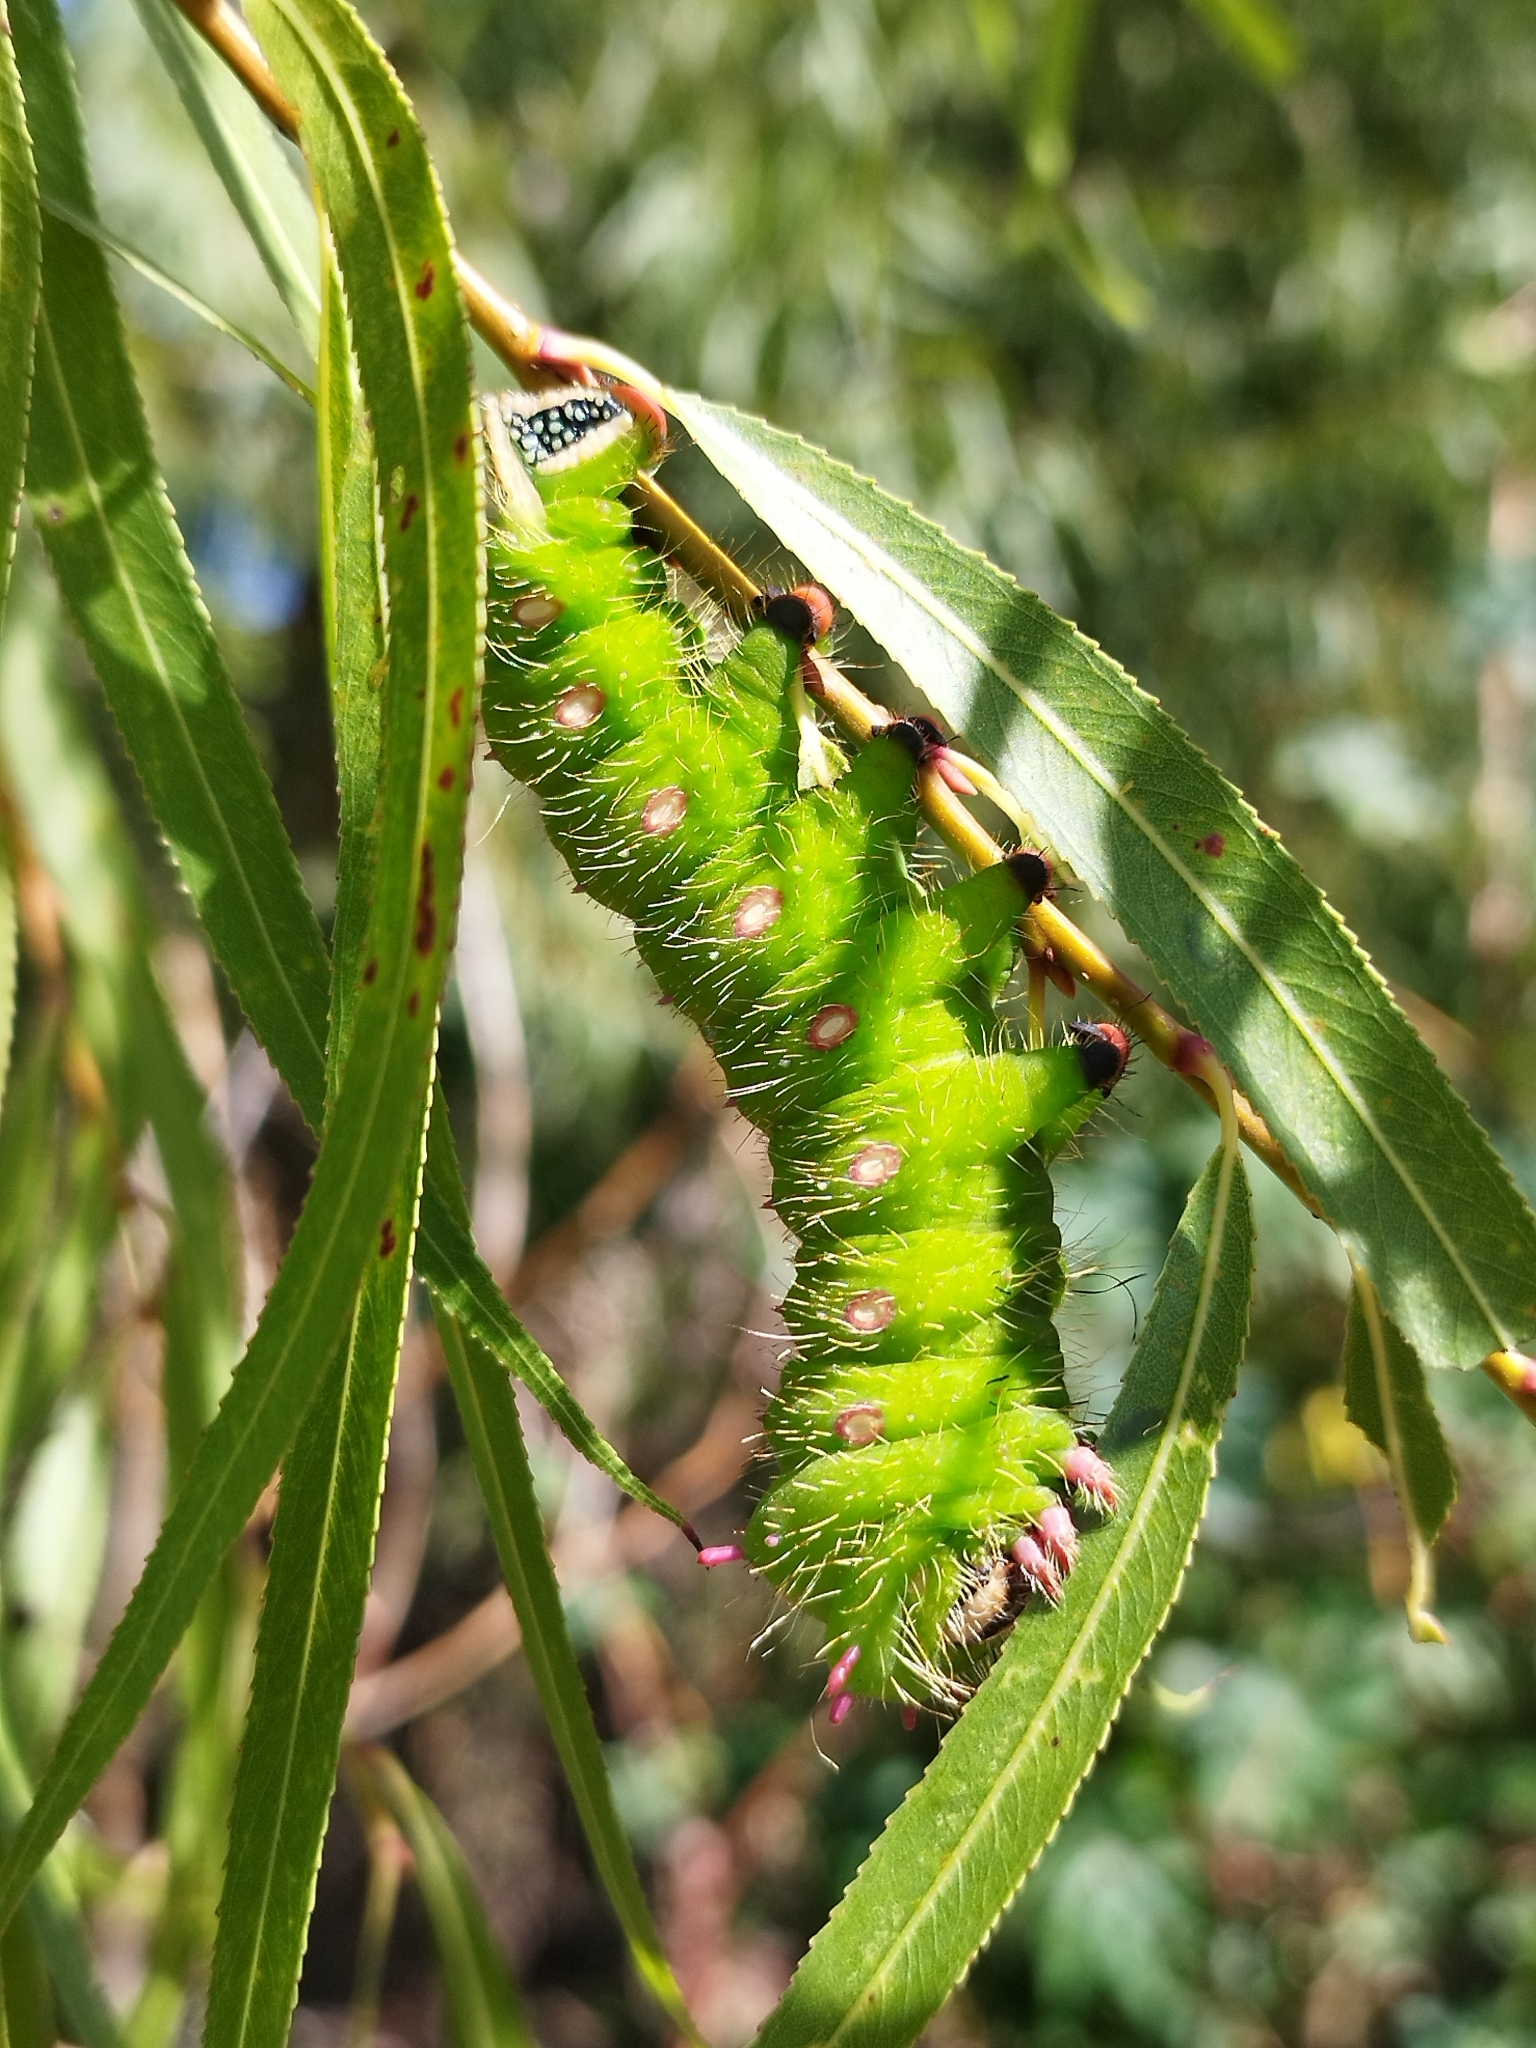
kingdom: Animalia
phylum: Arthropoda
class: Insecta
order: Lepidoptera
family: Saturniidae
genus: Eacles
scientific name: Eacles imperialis
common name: Imperial moth
